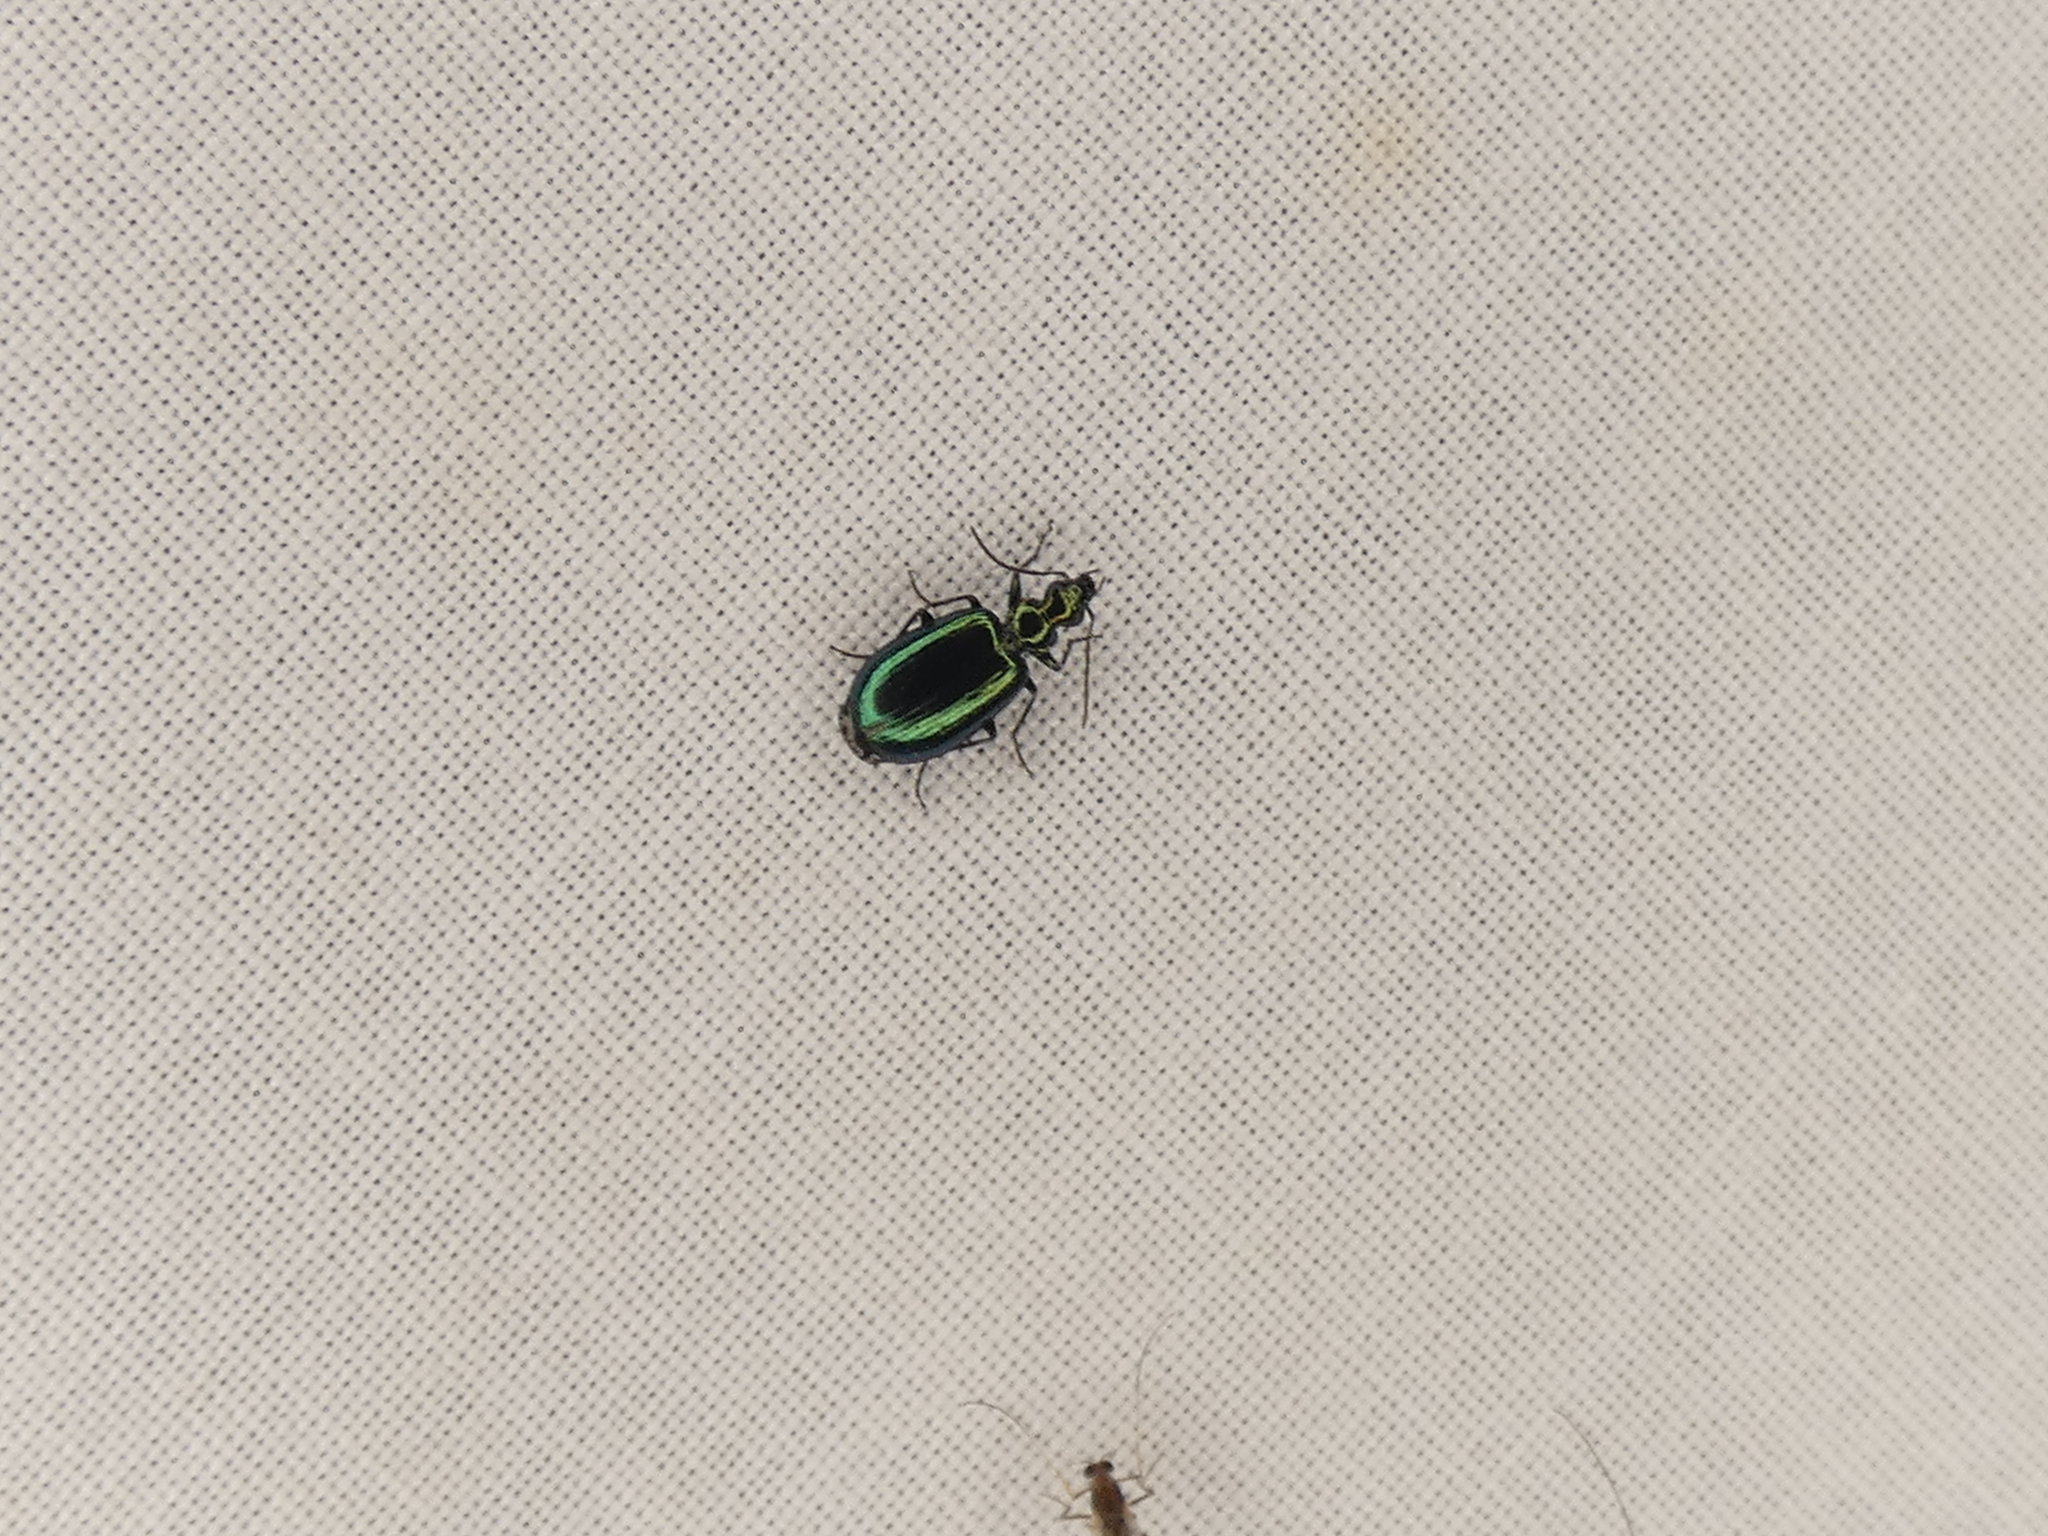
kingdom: Animalia
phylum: Arthropoda
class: Insecta
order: Coleoptera
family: Carabidae
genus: Lebia
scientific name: Lebia viridis
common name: Flower lebia beetle
